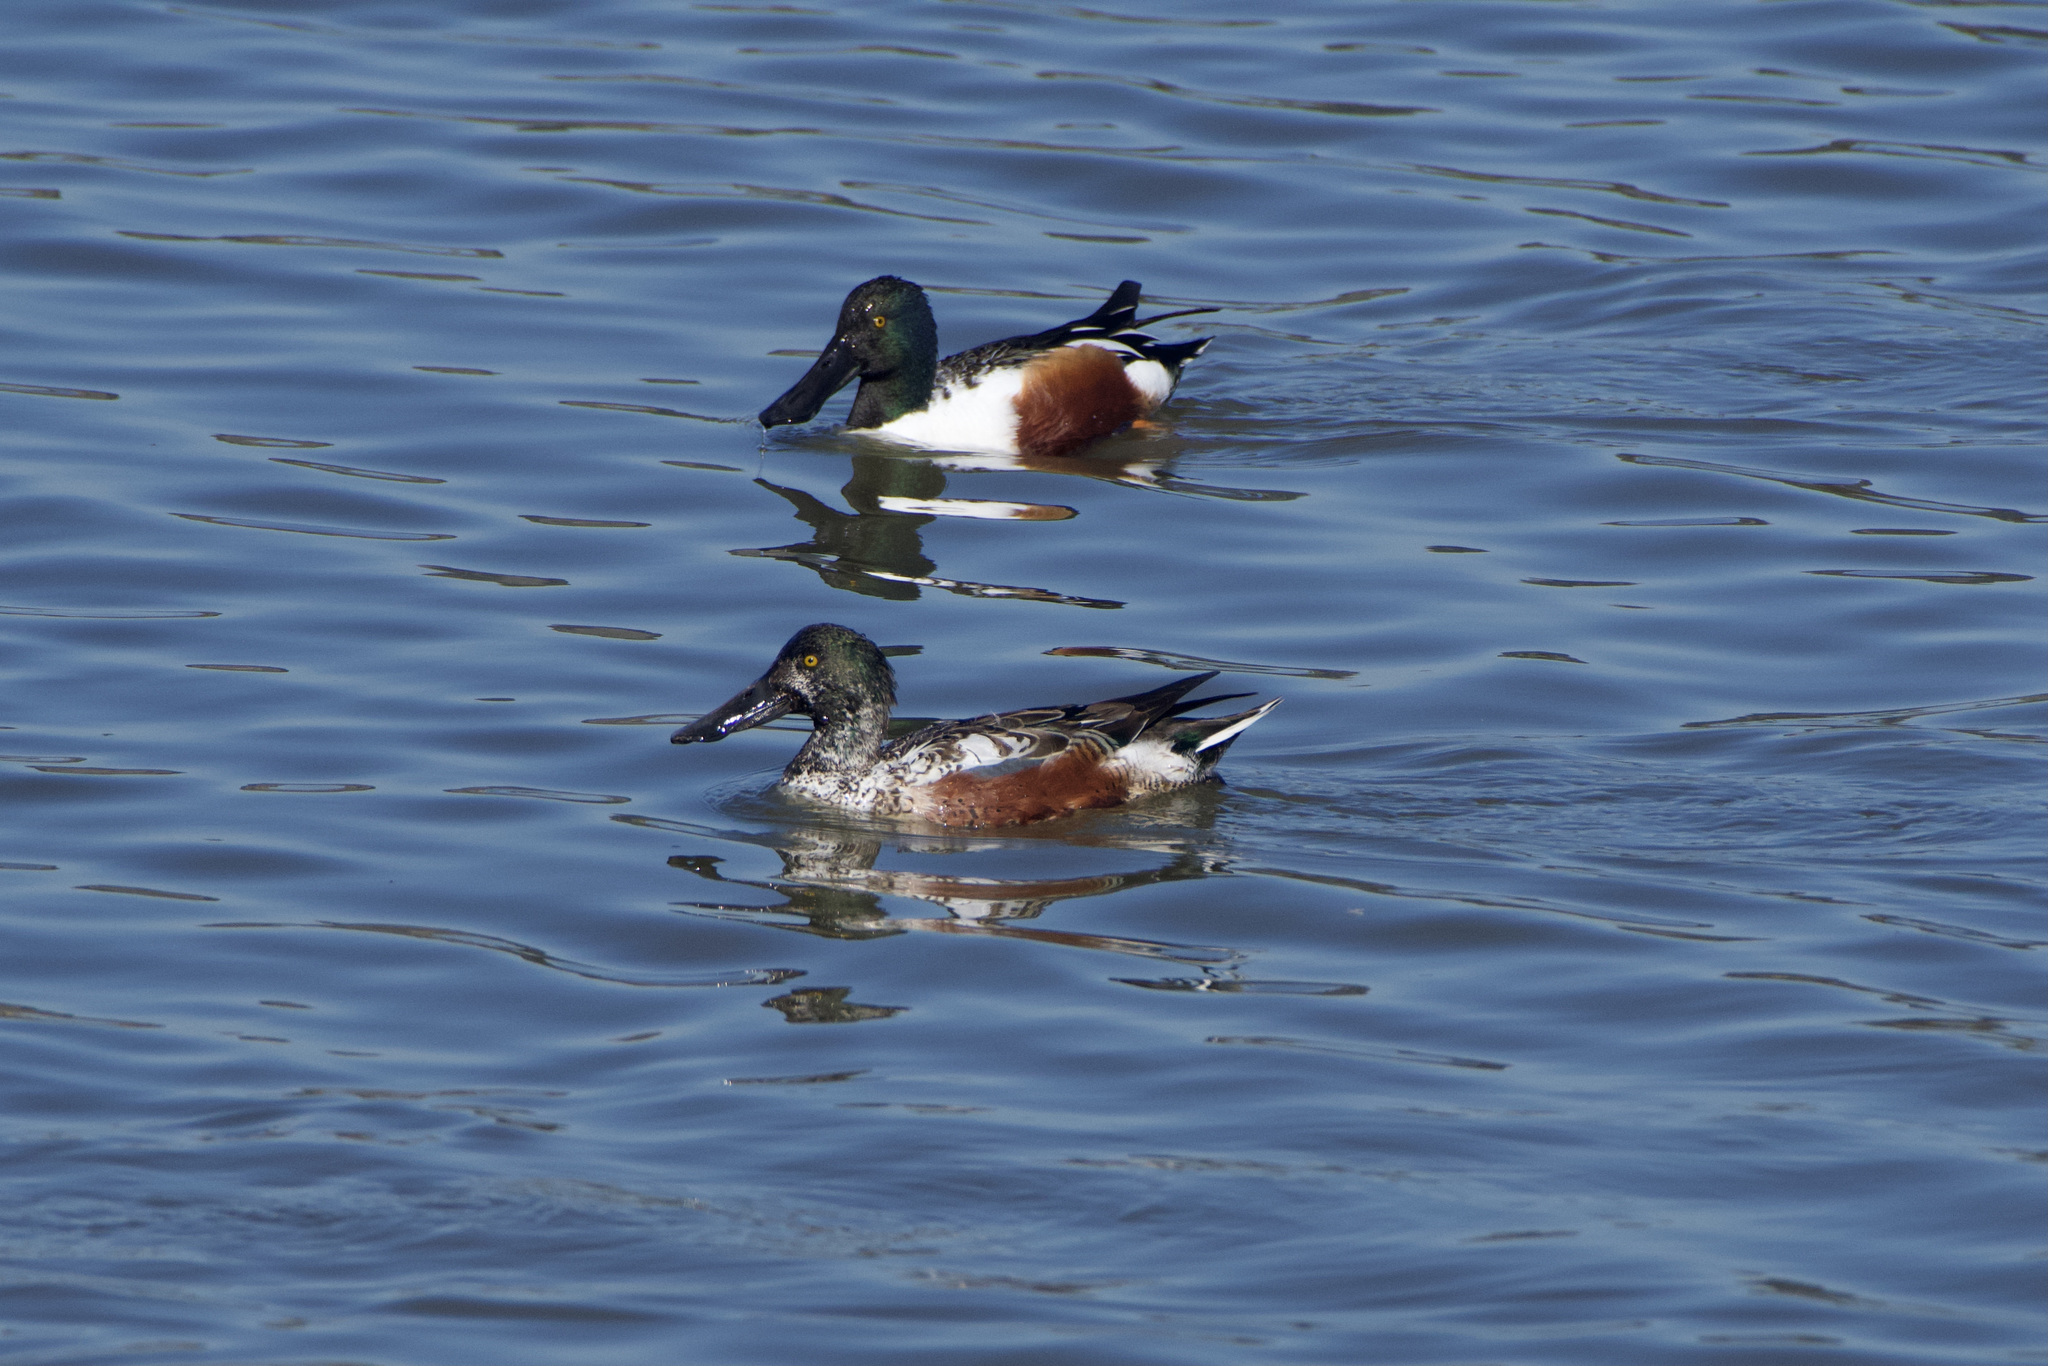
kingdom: Animalia
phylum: Chordata
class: Aves
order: Anseriformes
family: Anatidae
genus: Spatula
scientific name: Spatula clypeata
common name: Northern shoveler
